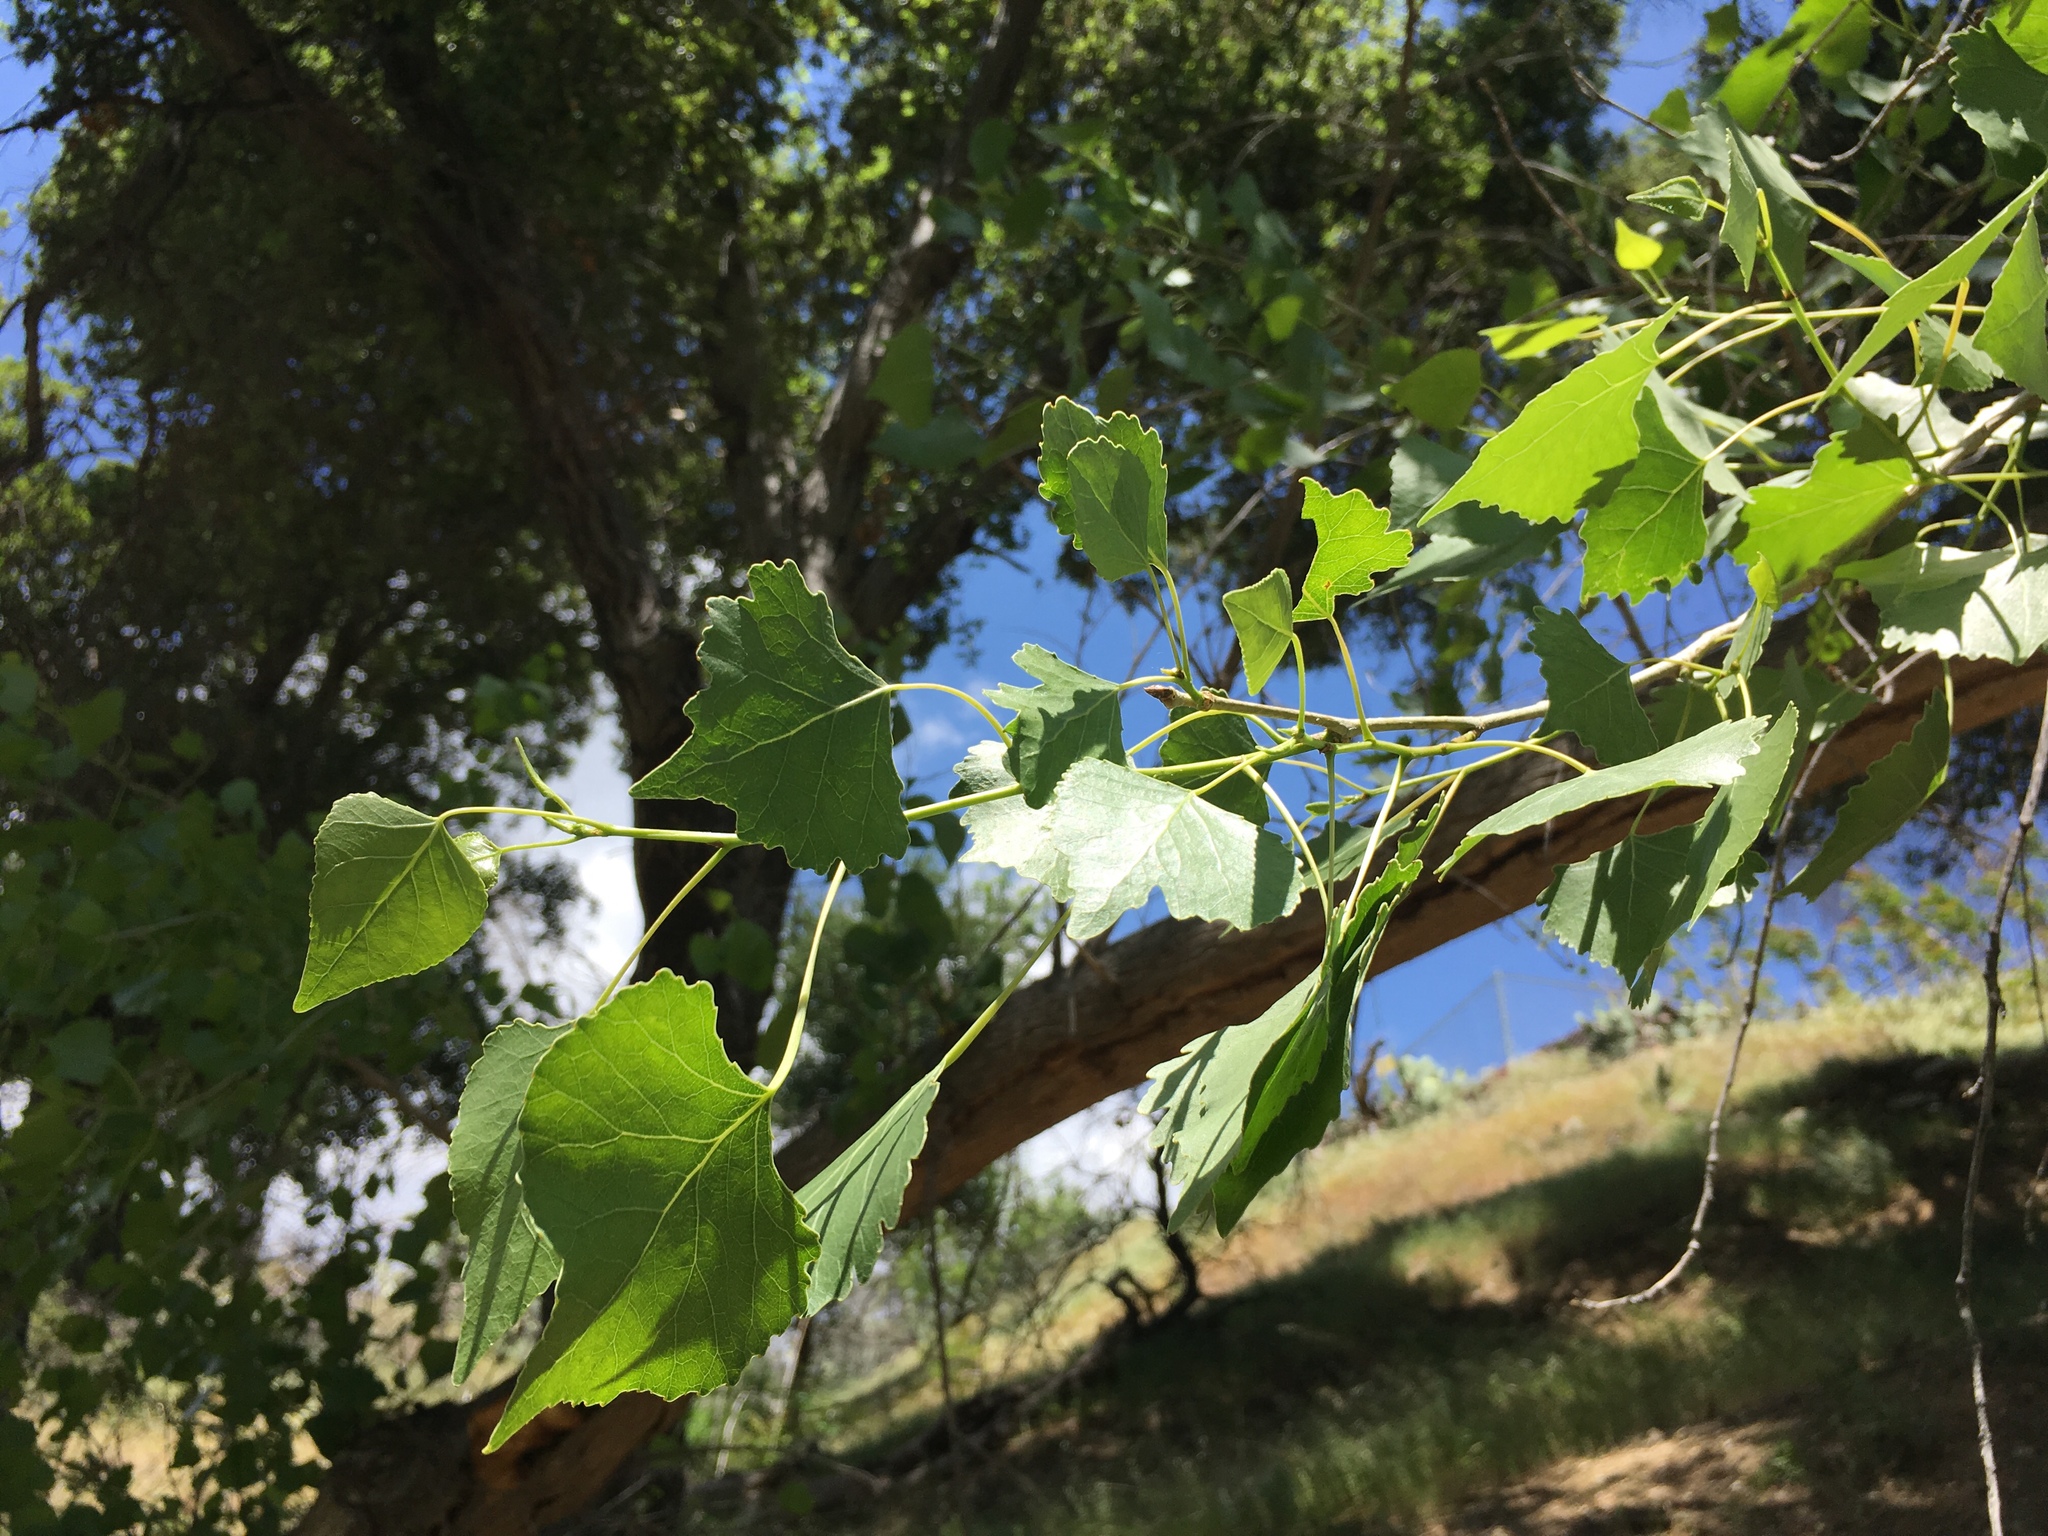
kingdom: Plantae
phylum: Tracheophyta
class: Magnoliopsida
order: Malpighiales
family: Salicaceae
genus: Populus
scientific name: Populus fremontii
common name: Fremont's cottonwood
